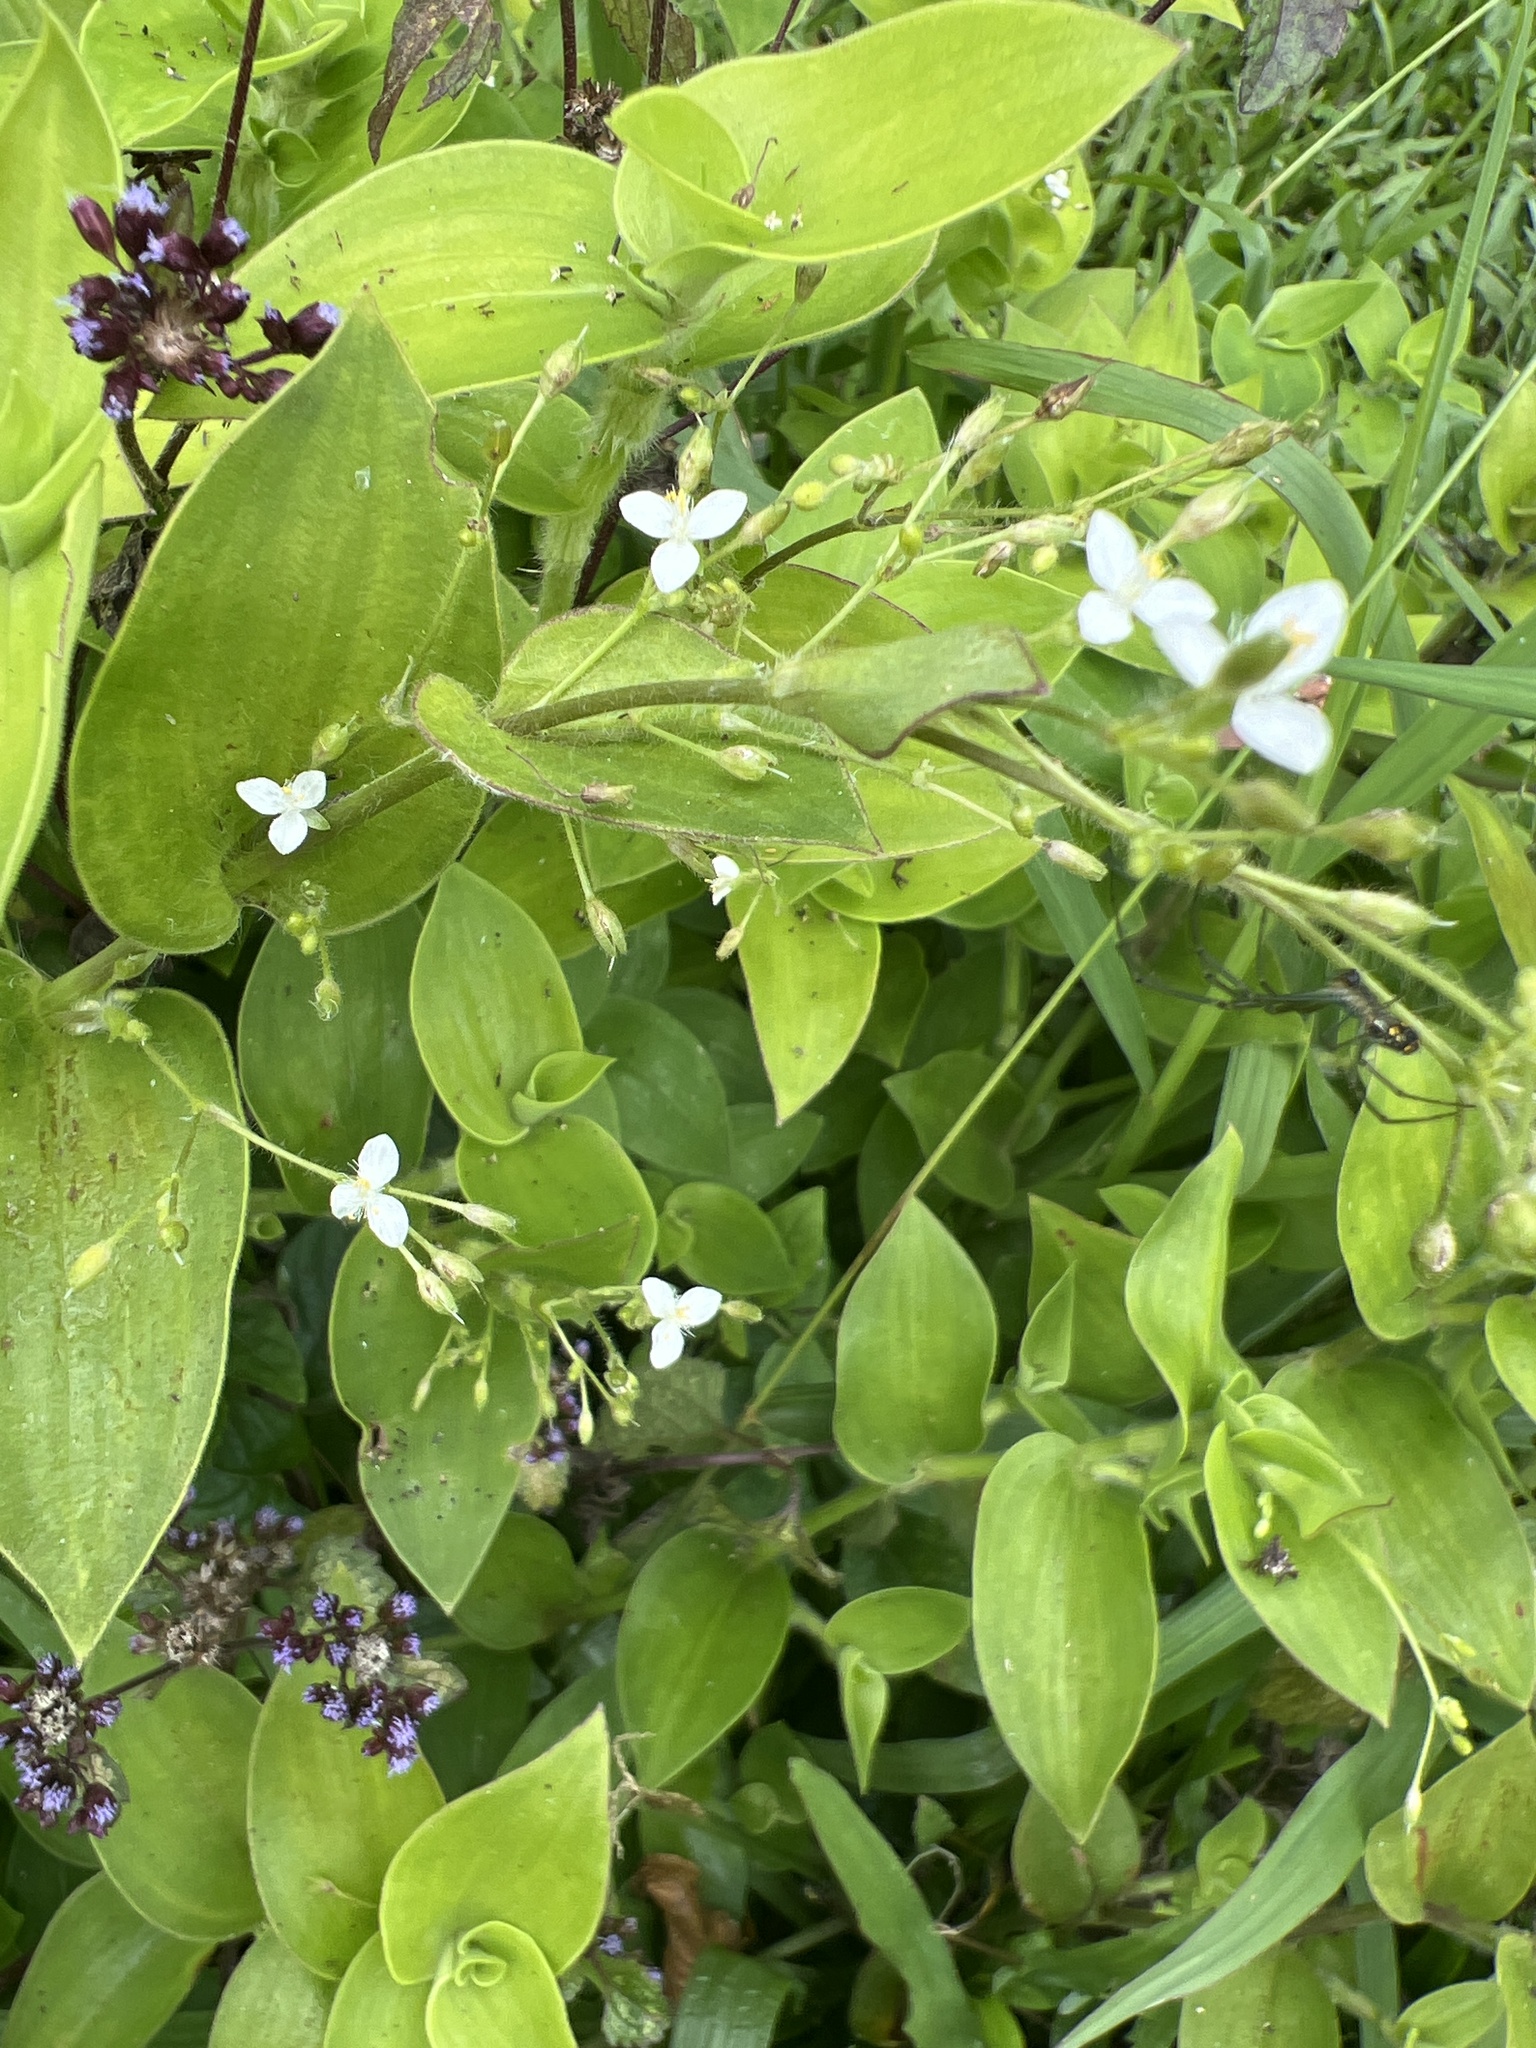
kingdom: Plantae
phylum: Tracheophyta
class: Liliopsida
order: Commelinales
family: Commelinaceae
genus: Callisia
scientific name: Callisia serrulata
